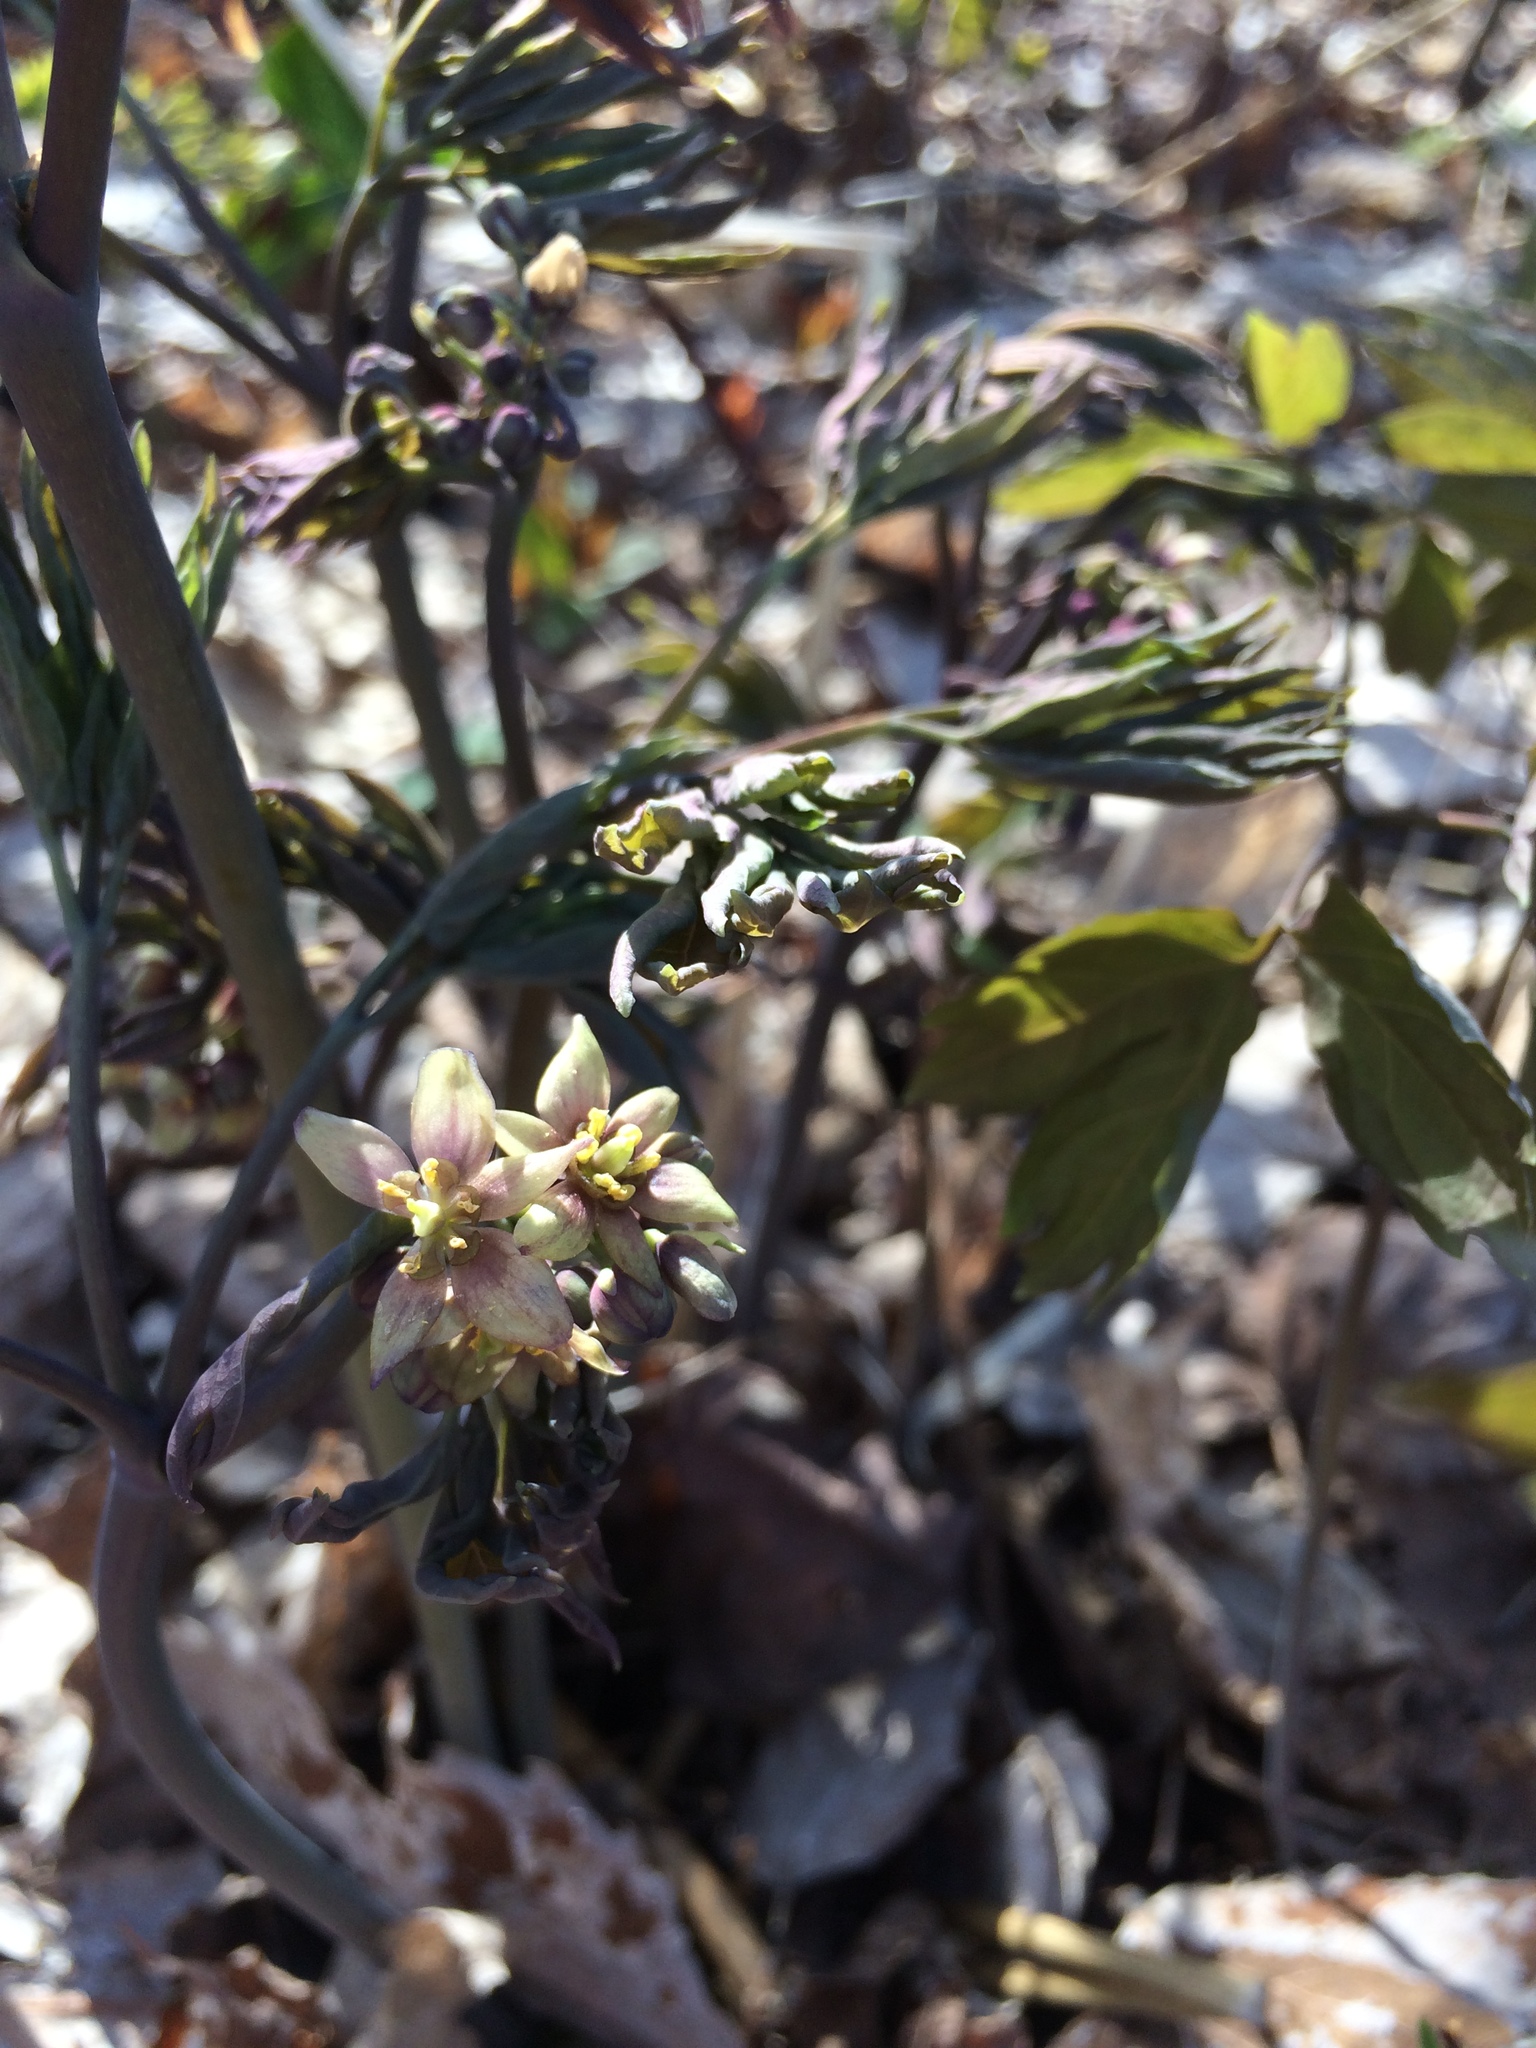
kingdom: Plantae
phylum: Tracheophyta
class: Magnoliopsida
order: Ranunculales
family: Berberidaceae
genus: Caulophyllum
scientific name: Caulophyllum giganteum
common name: Blue cohosh
